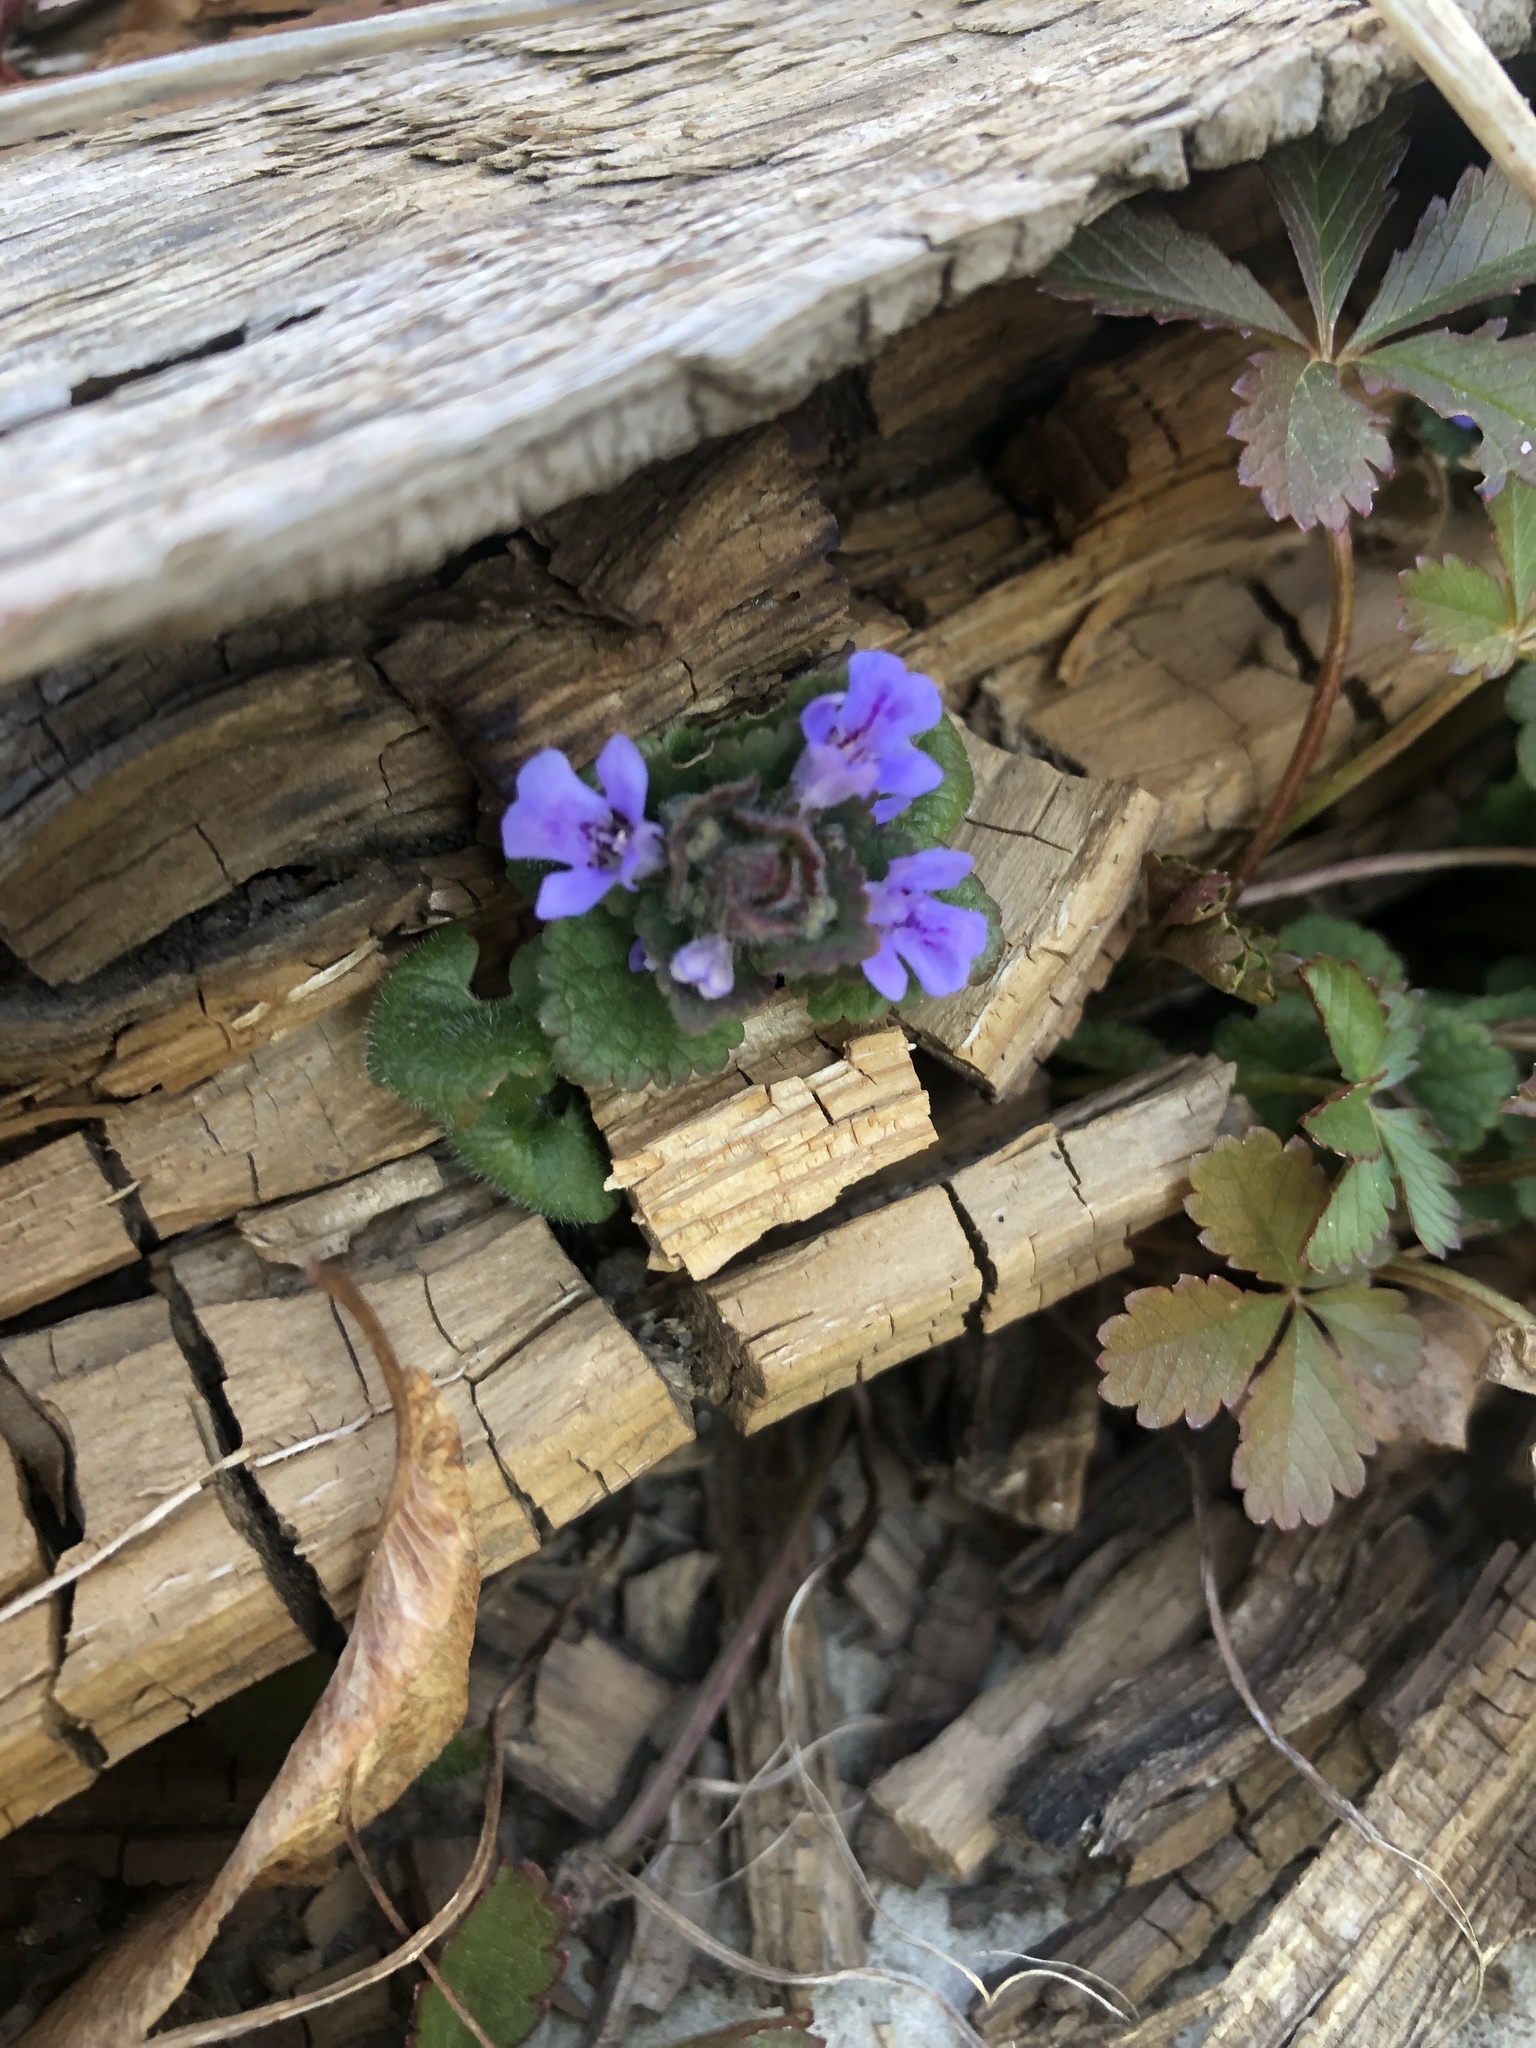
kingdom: Plantae
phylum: Tracheophyta
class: Magnoliopsida
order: Lamiales
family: Lamiaceae
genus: Glechoma
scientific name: Glechoma hederacea
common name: Ground ivy
